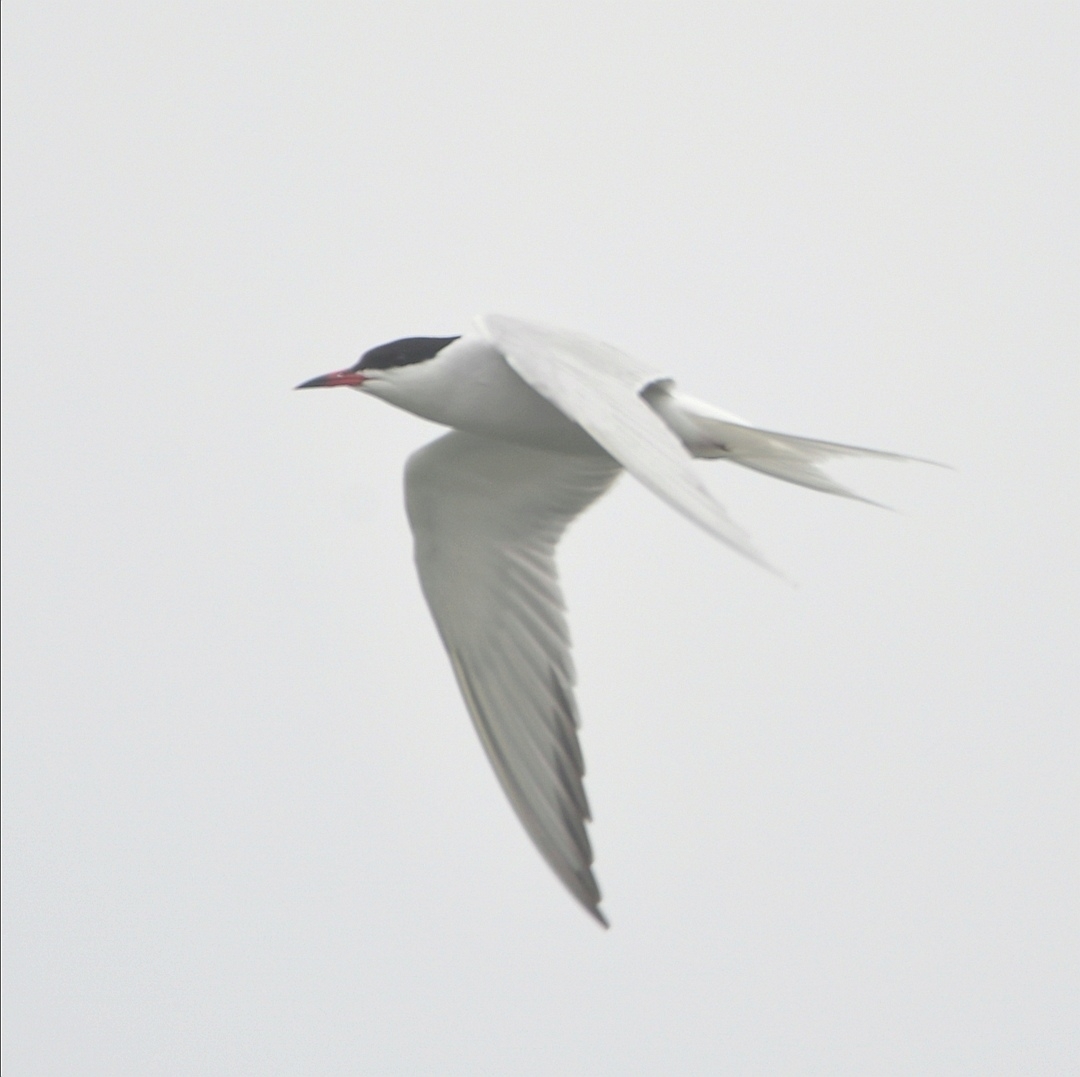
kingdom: Animalia
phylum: Chordata
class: Aves
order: Charadriiformes
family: Laridae
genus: Sterna
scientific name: Sterna hirundo
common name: Common tern
